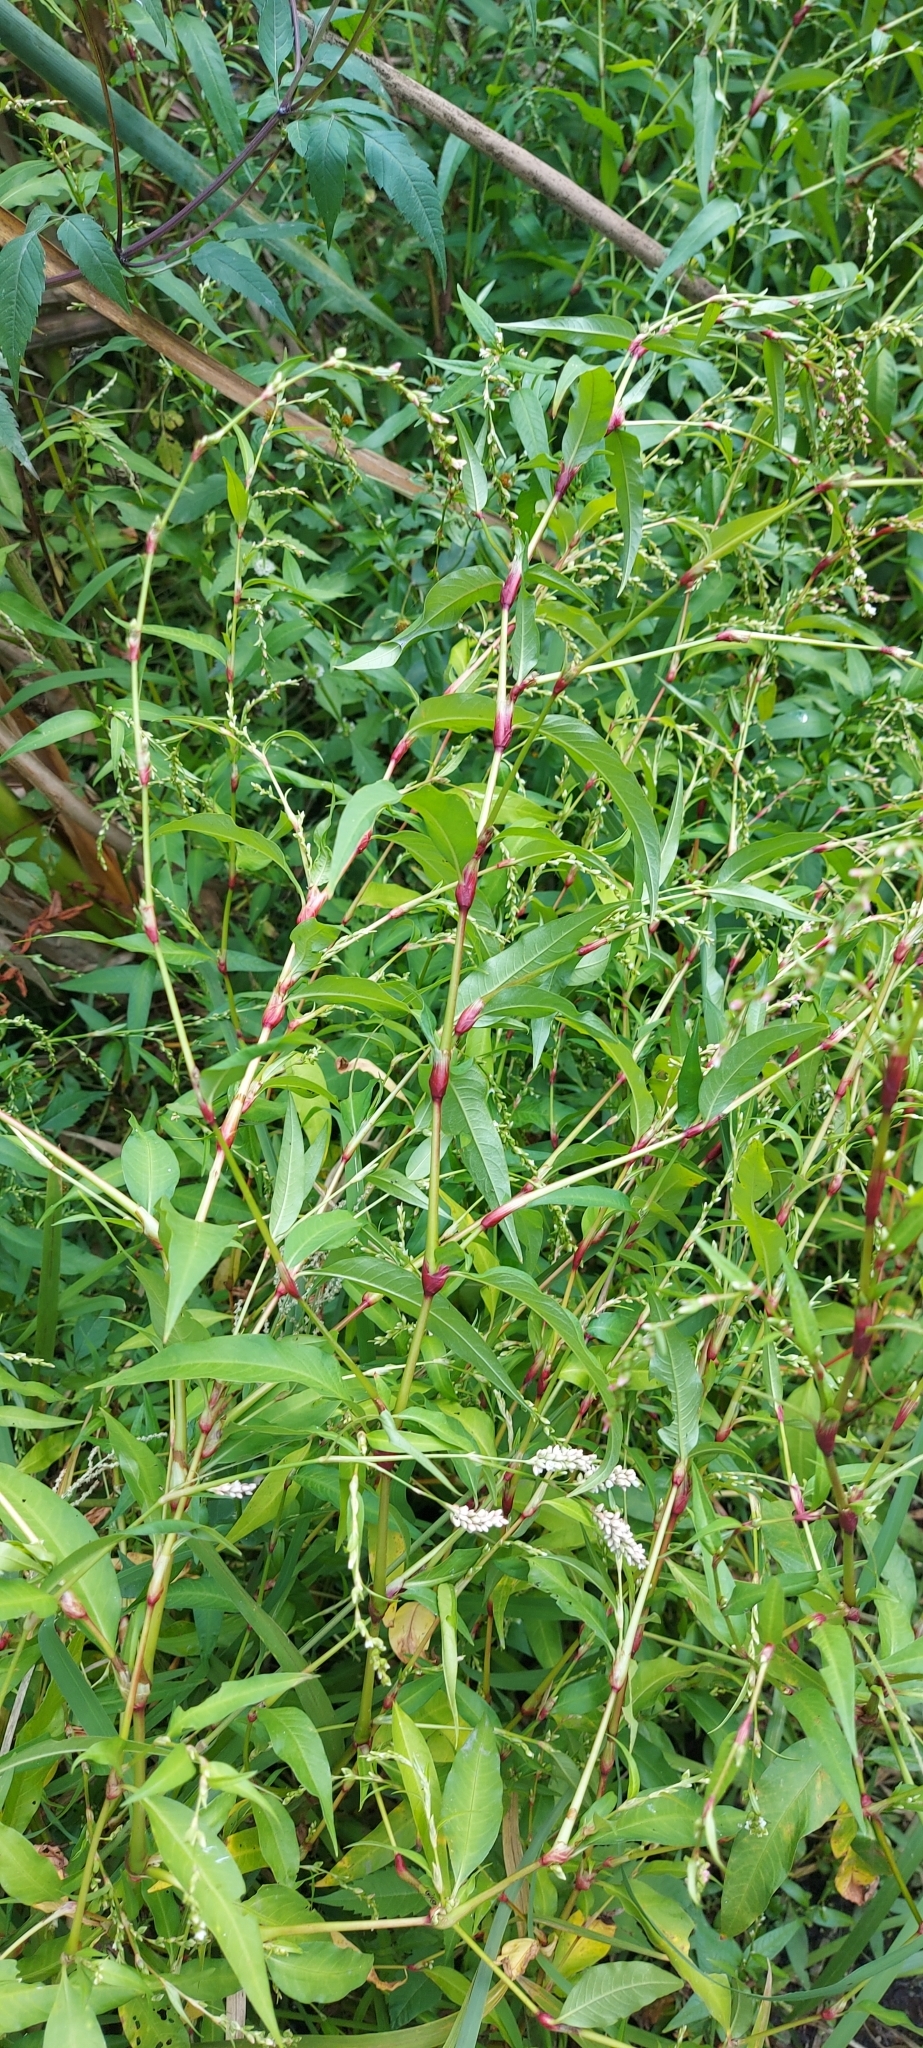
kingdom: Plantae
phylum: Tracheophyta
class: Magnoliopsida
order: Caryophyllales
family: Polygonaceae
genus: Persicaria
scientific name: Persicaria hydropiper
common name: Water-pepper
